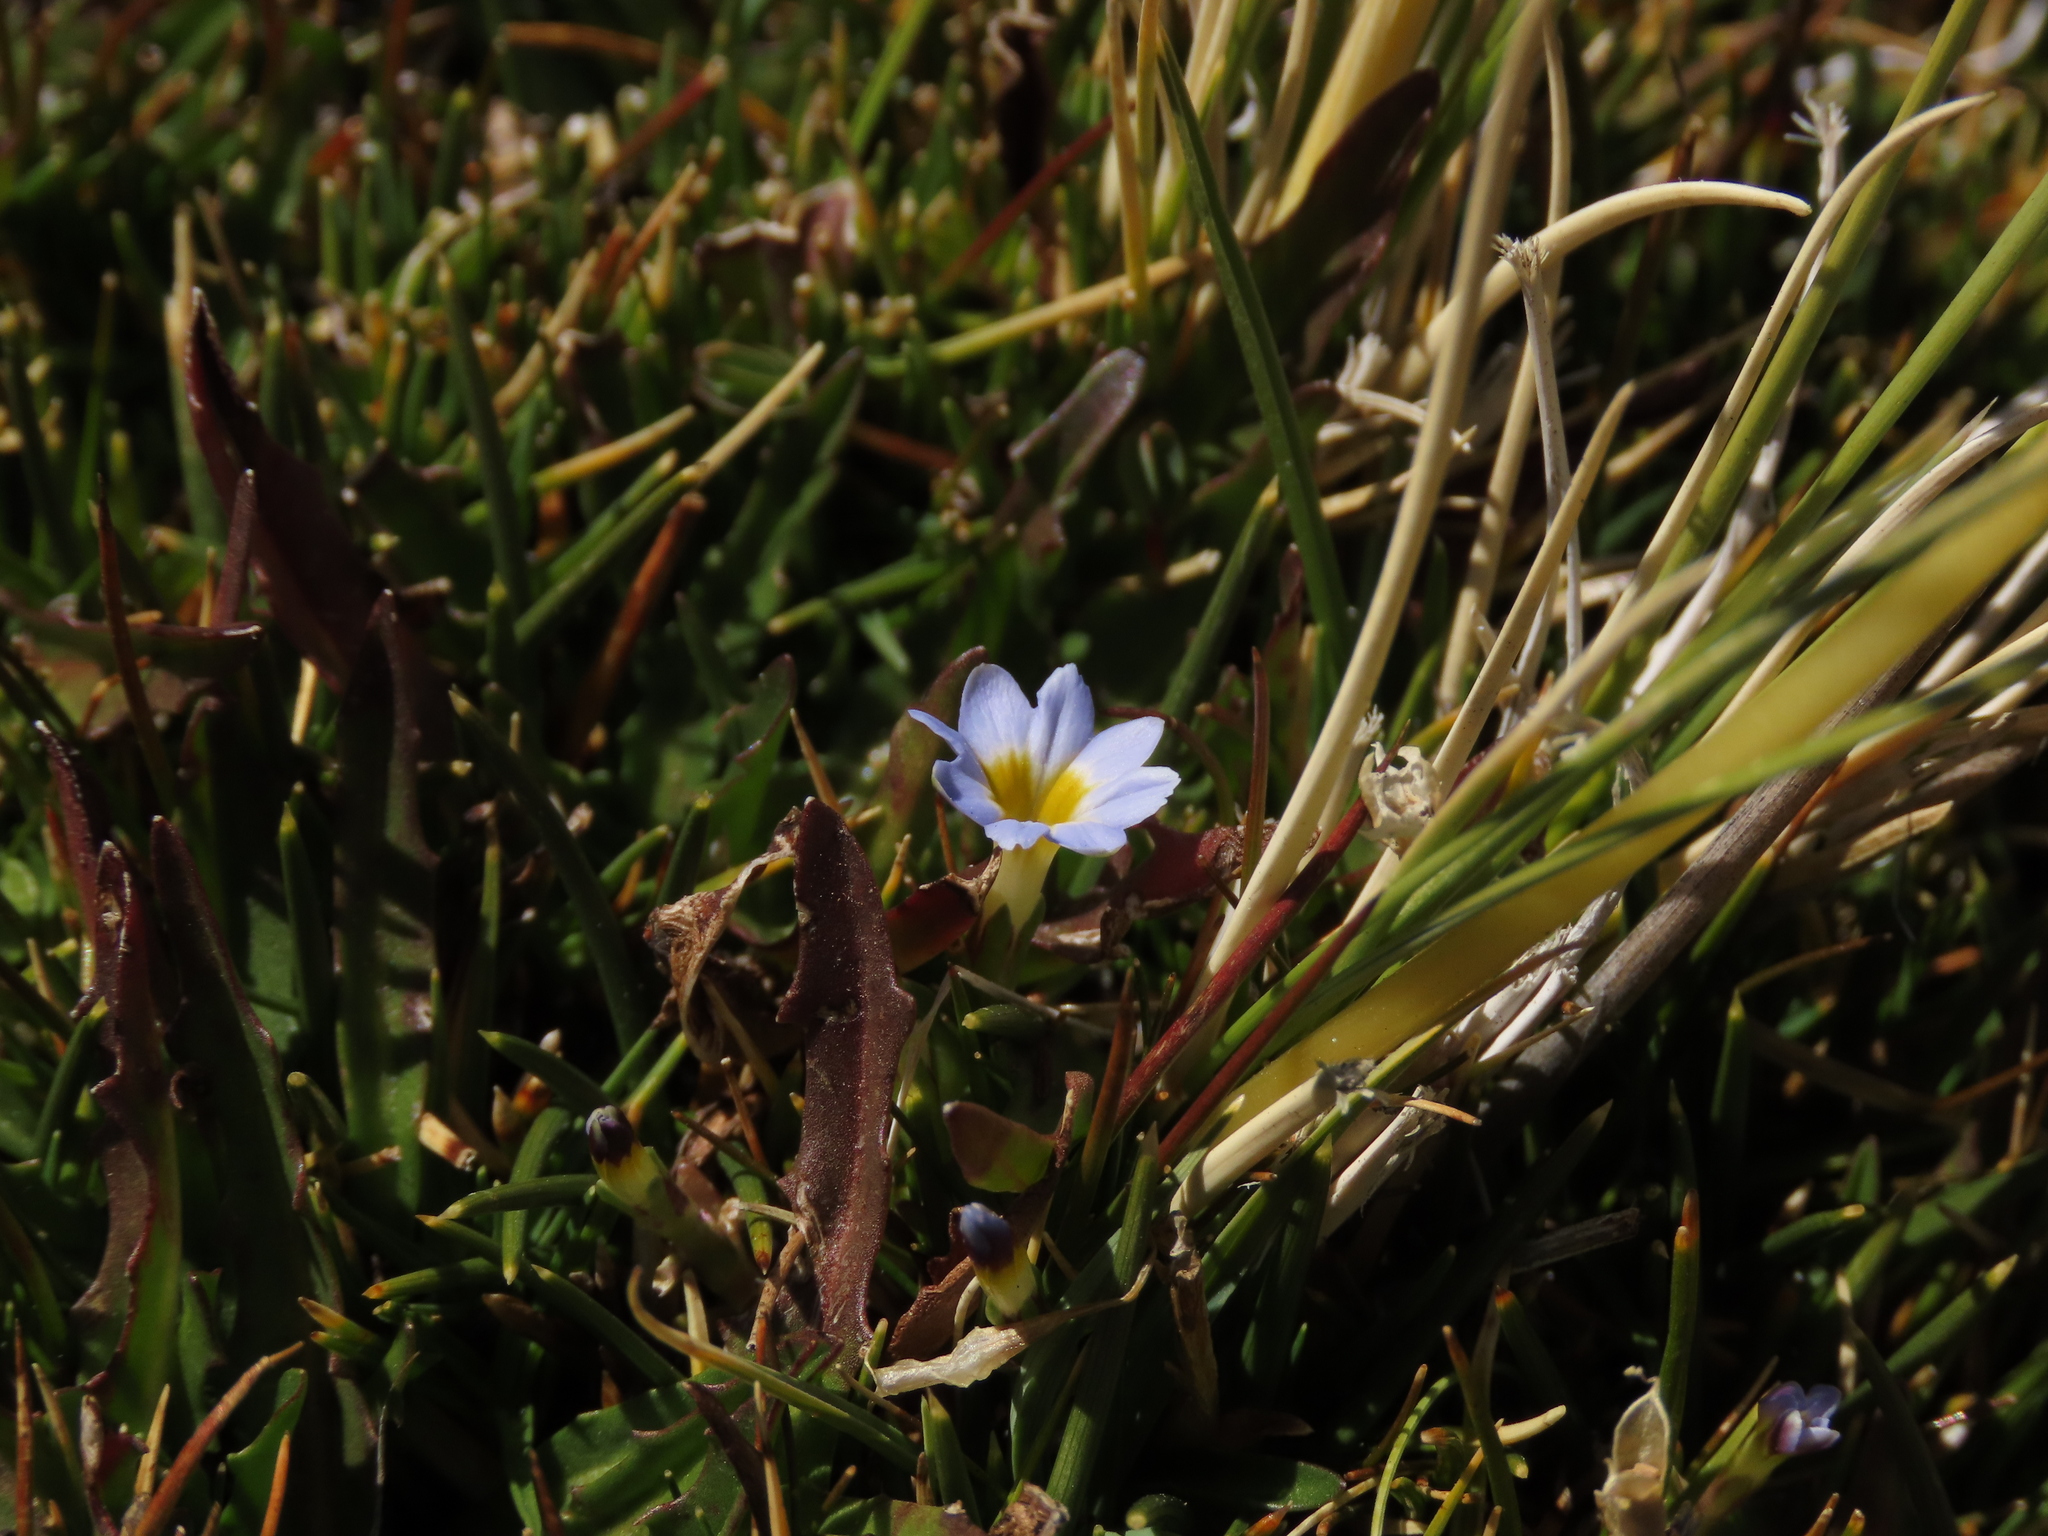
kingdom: Plantae
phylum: Tracheophyta
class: Magnoliopsida
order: Gentianales
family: Gentianaceae
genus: Gentiana
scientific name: Gentiana prostrata
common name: Moss gentian
